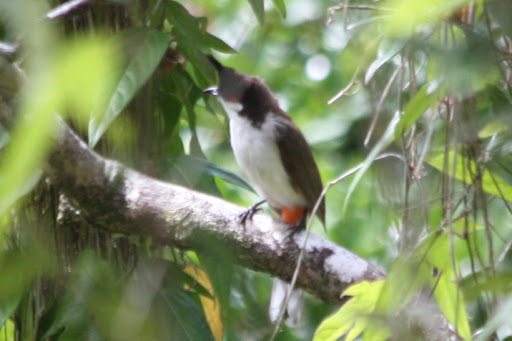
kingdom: Animalia
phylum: Chordata
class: Aves
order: Passeriformes
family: Pycnonotidae
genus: Pycnonotus
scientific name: Pycnonotus jocosus
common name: Red-whiskered bulbul
